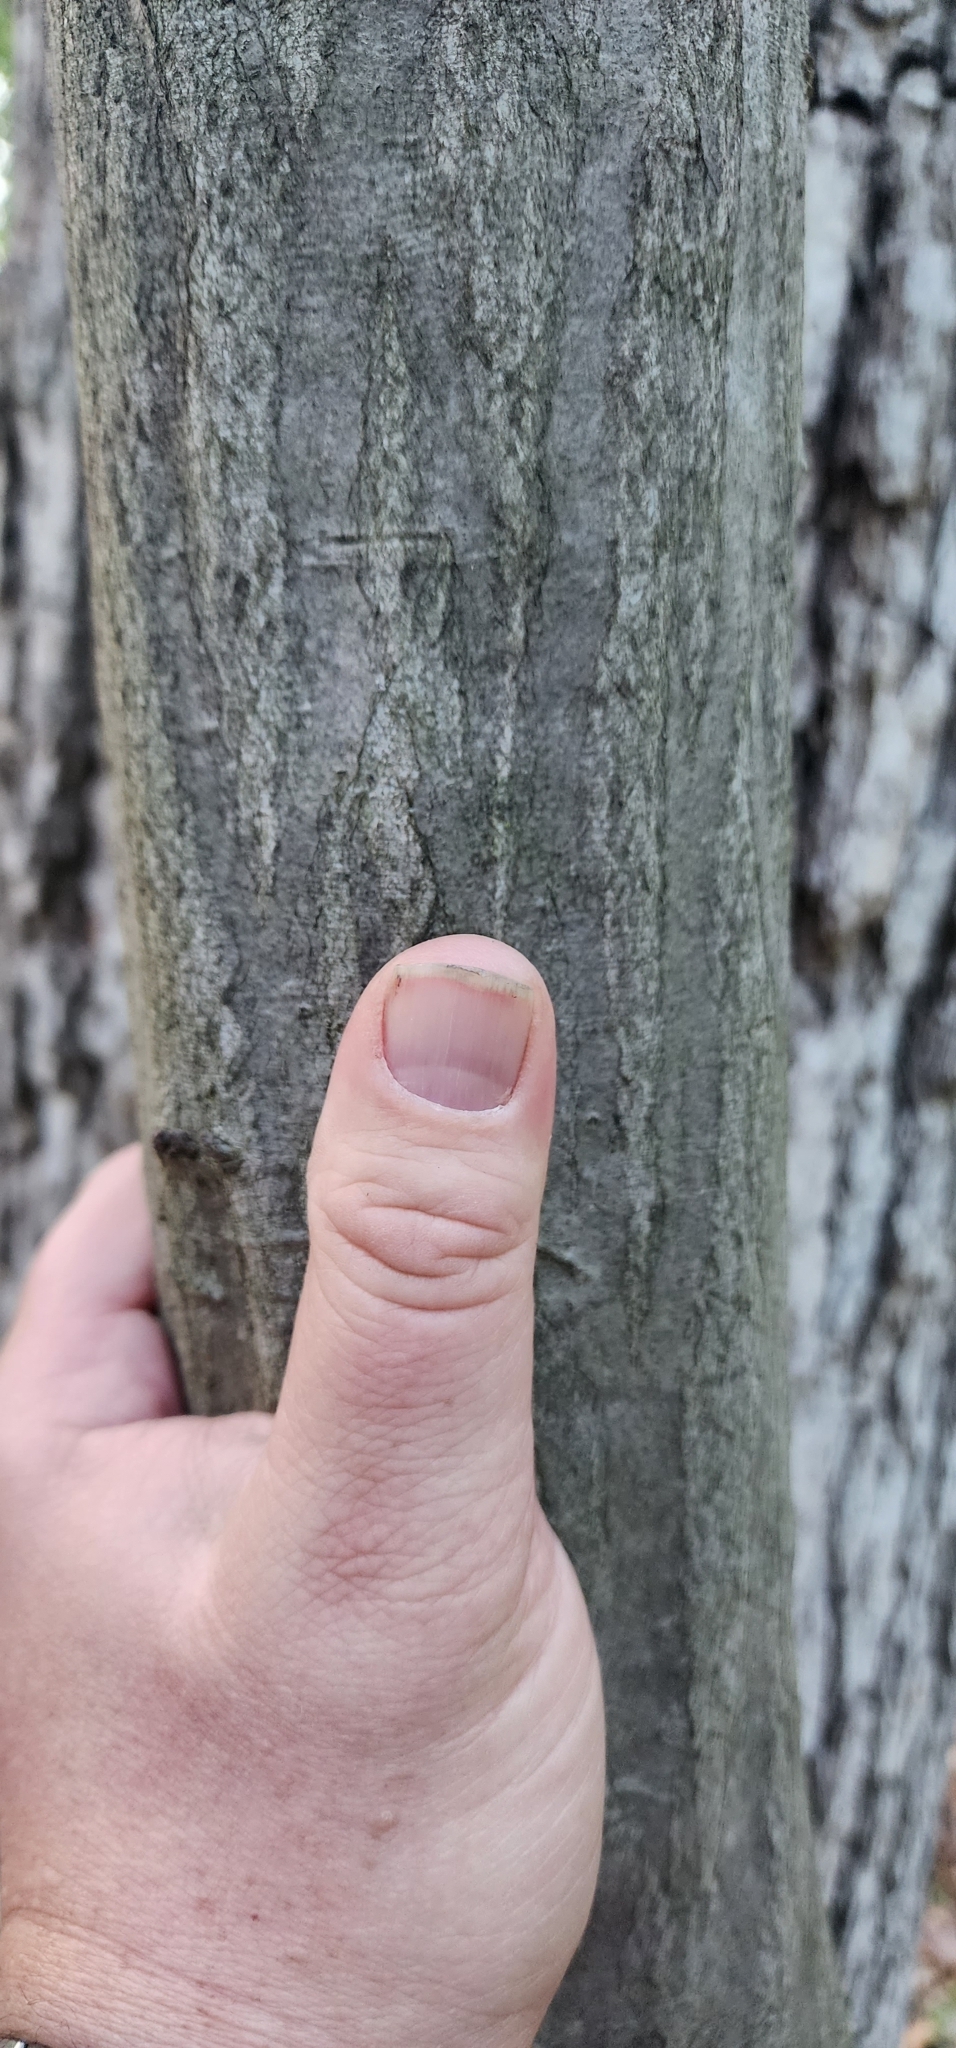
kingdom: Plantae
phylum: Tracheophyta
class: Magnoliopsida
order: Fagales
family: Betulaceae
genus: Carpinus
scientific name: Carpinus caroliniana
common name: American hornbeam
